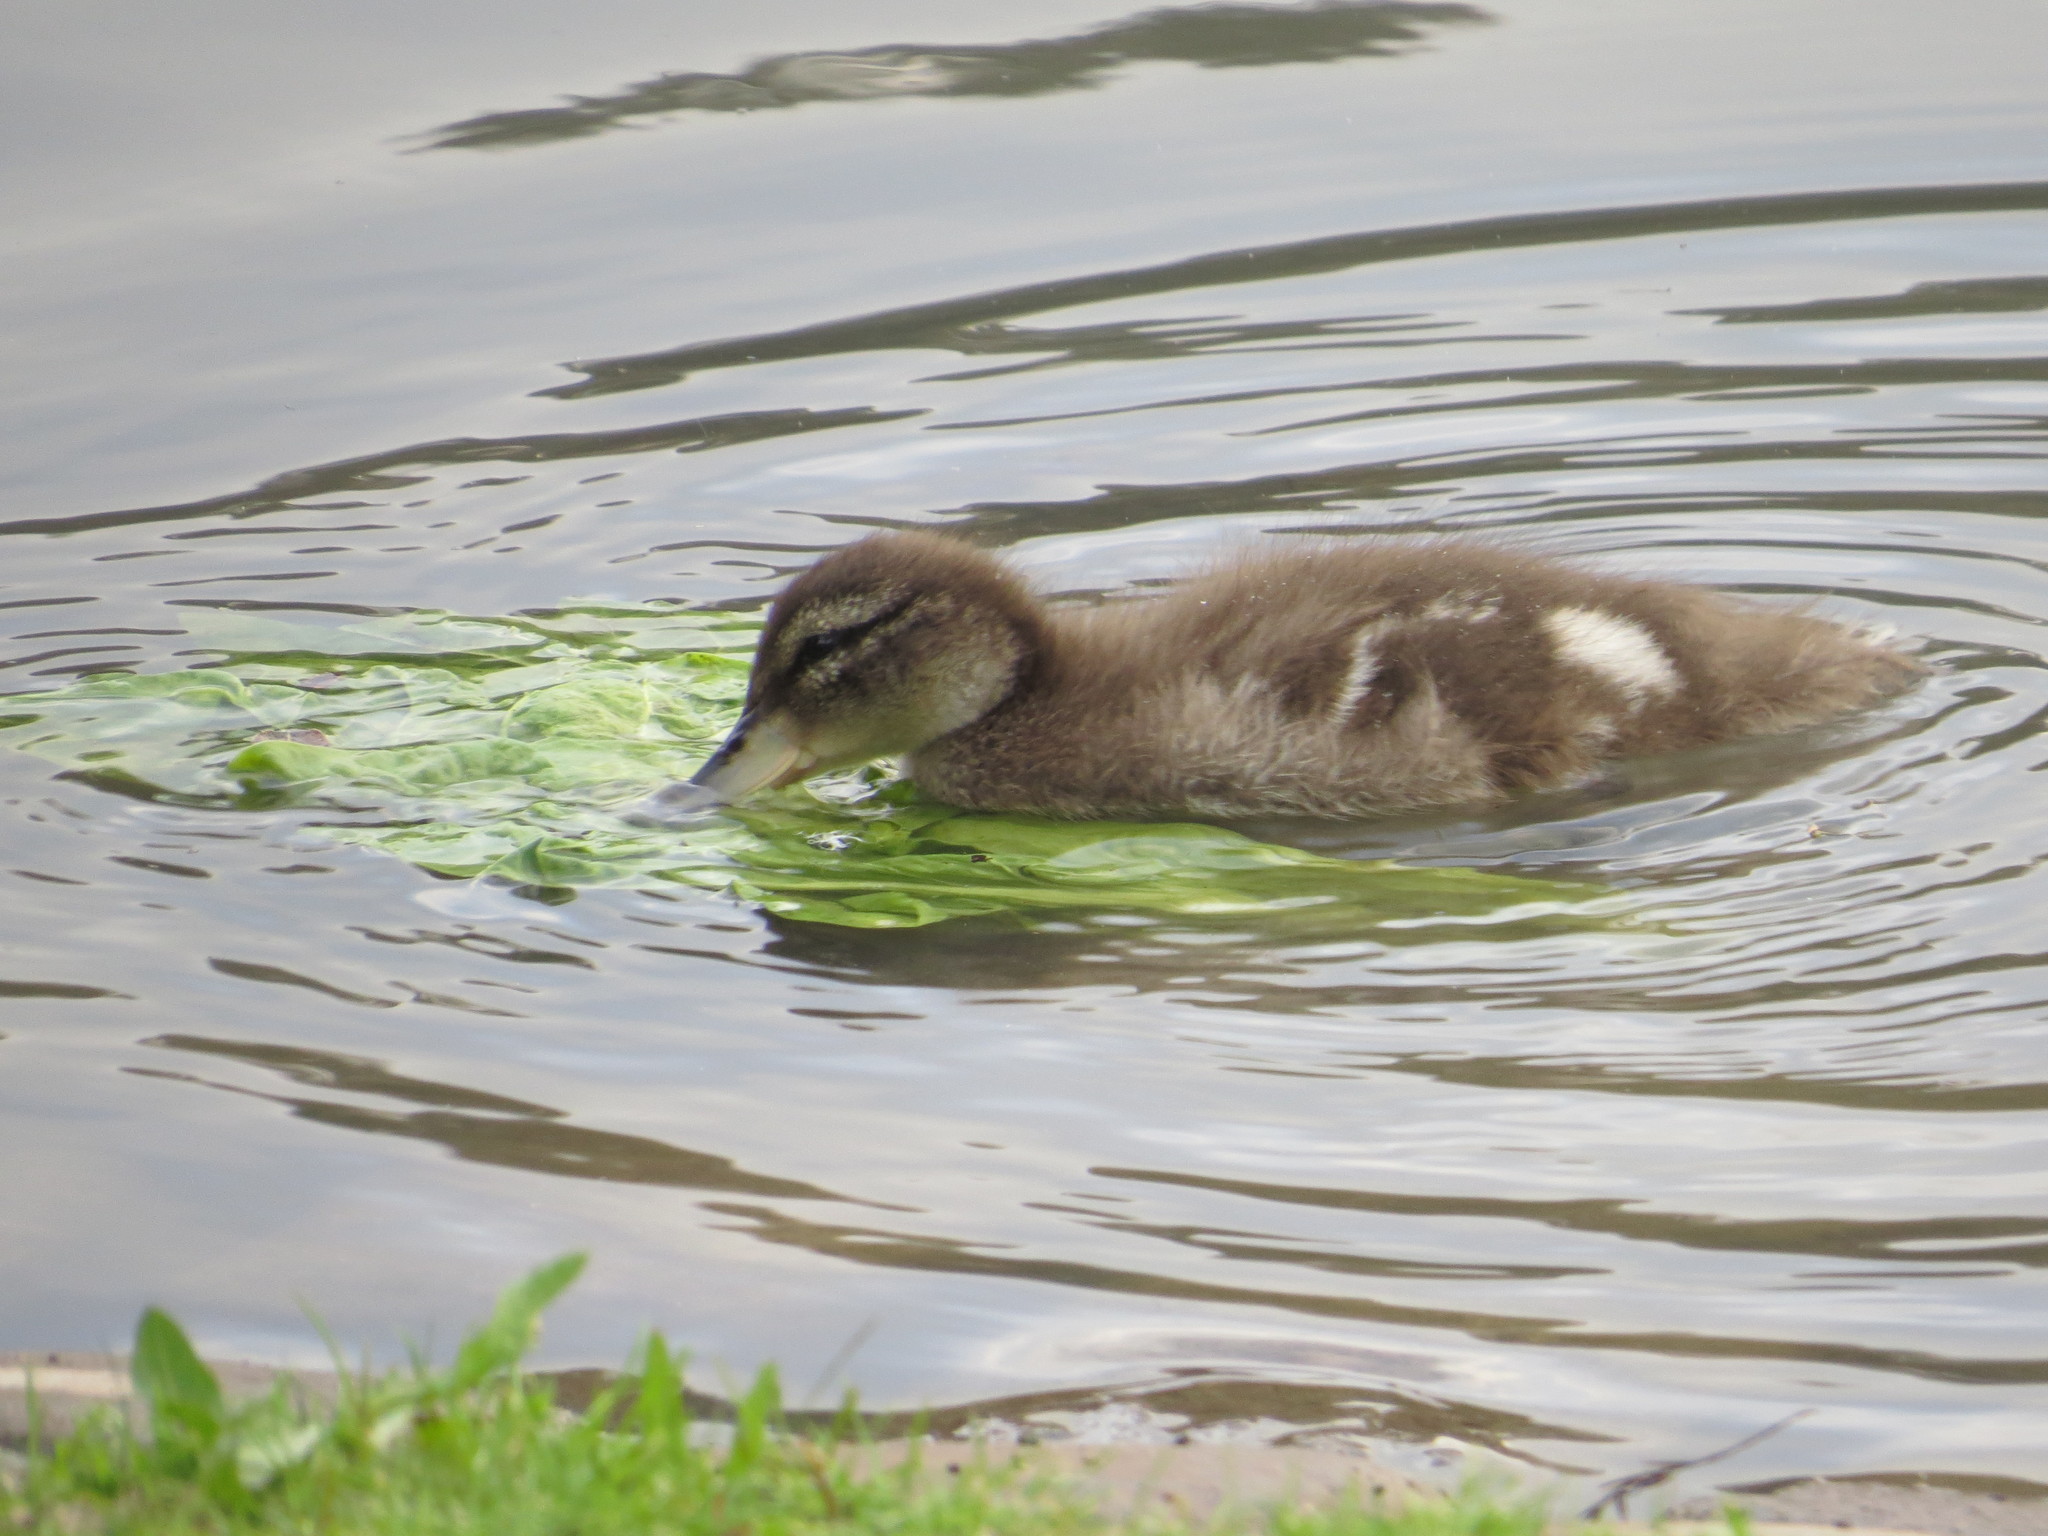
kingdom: Animalia
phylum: Chordata
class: Aves
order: Anseriformes
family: Anatidae
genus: Anas
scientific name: Anas flavirostris
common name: Yellow-billed teal
